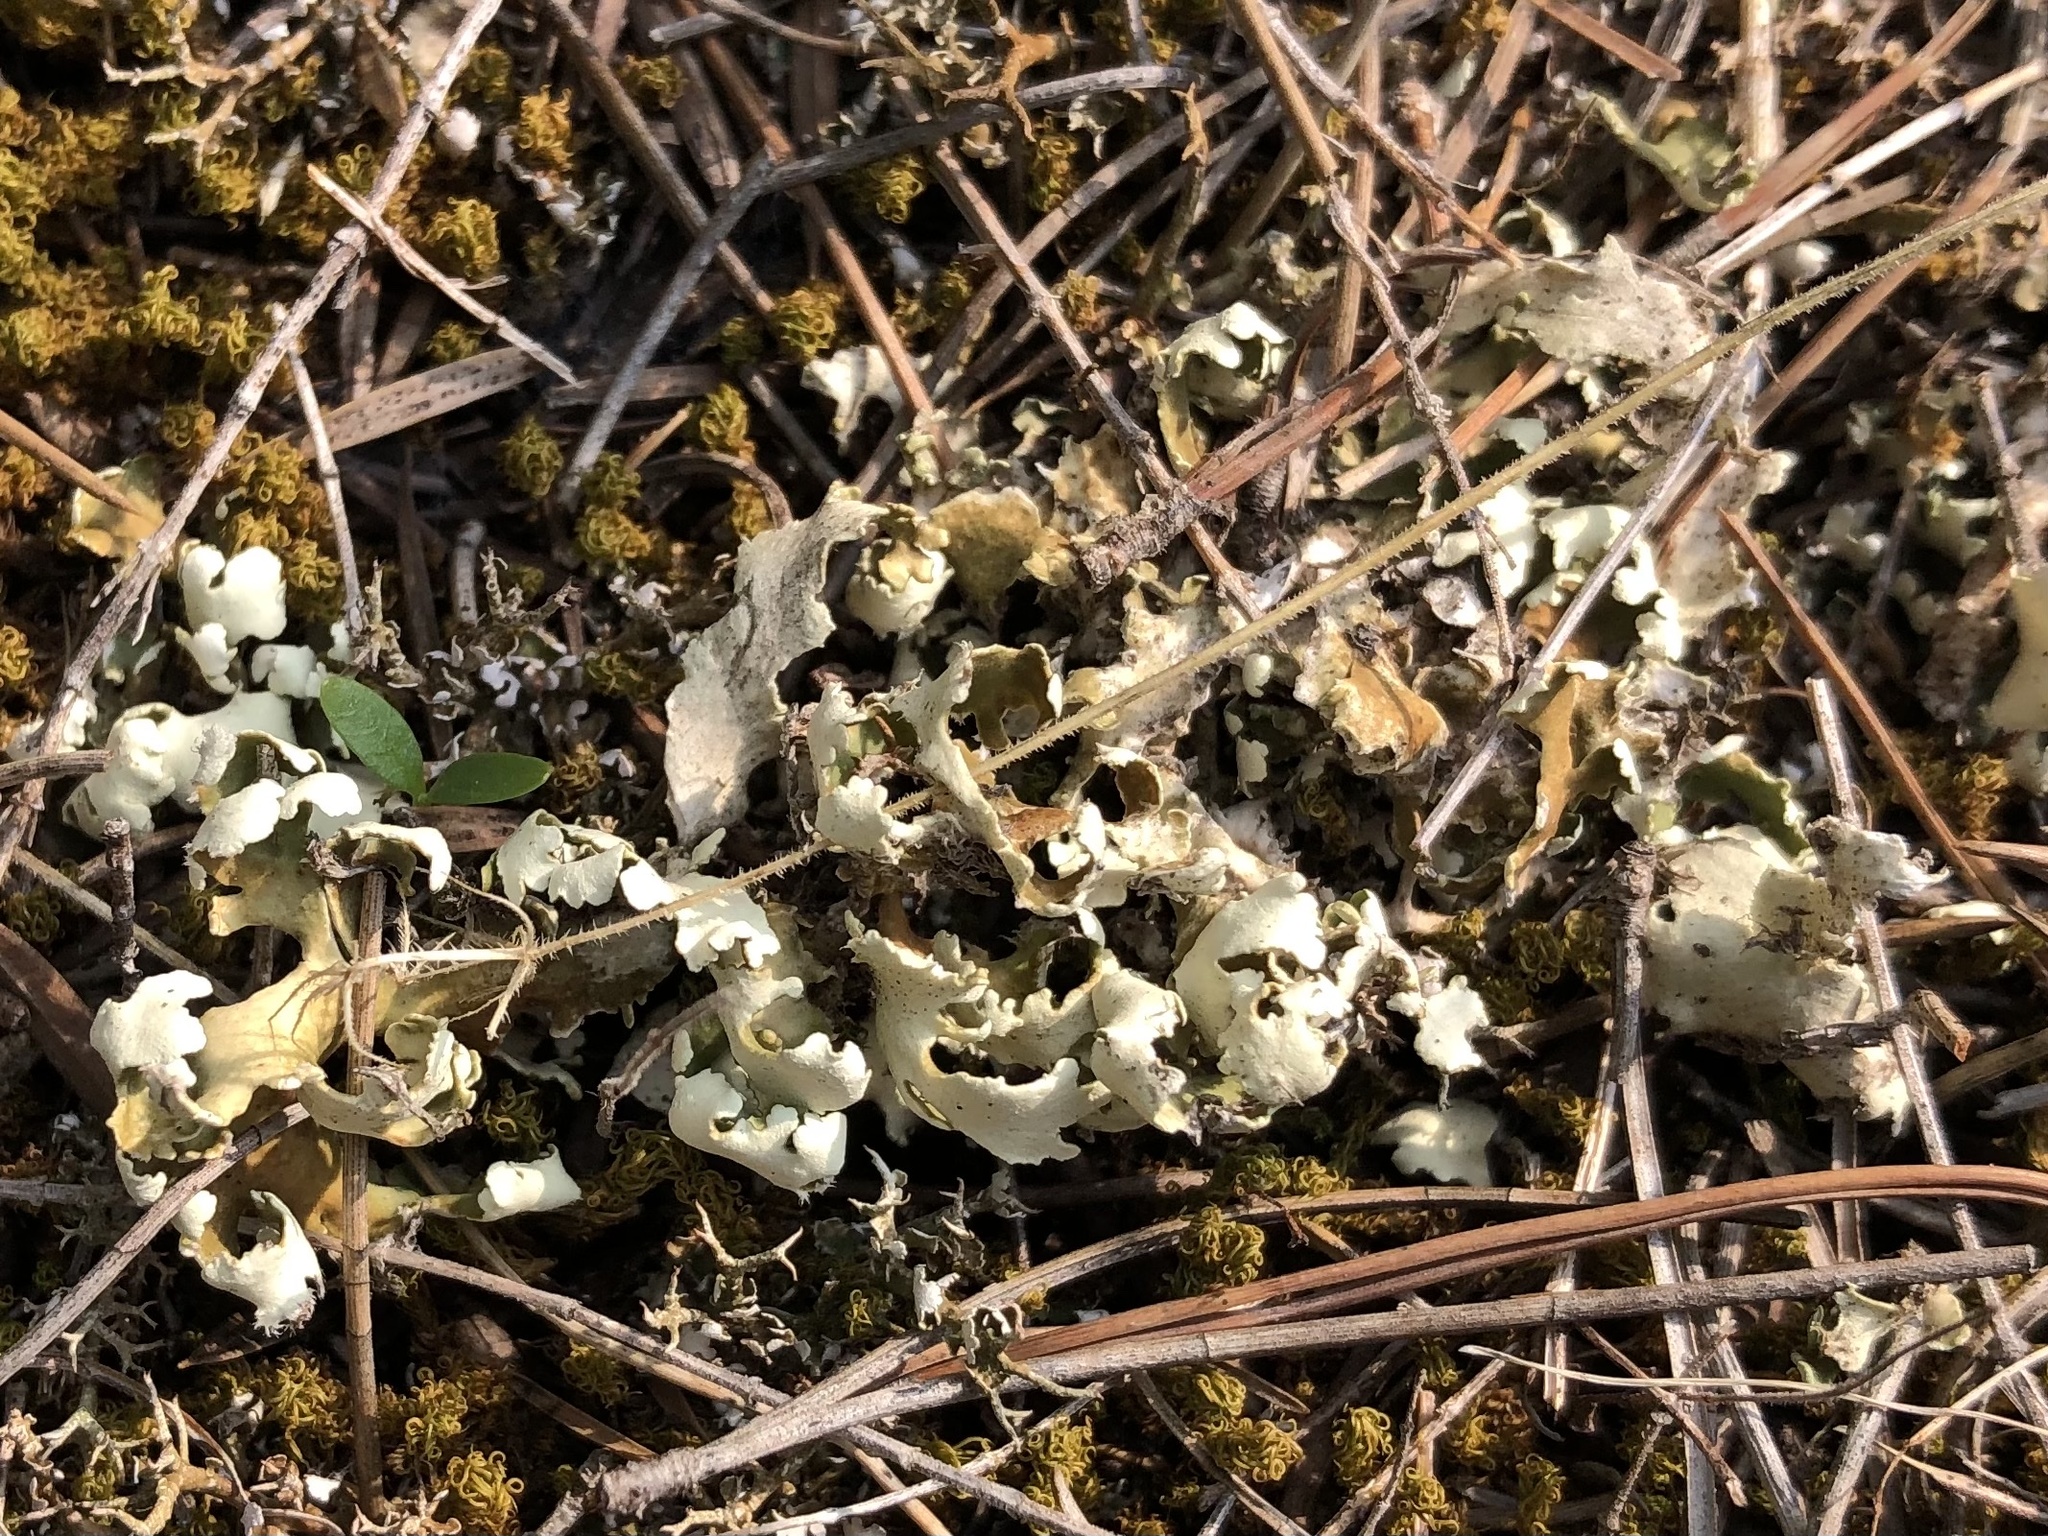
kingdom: Fungi
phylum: Ascomycota
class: Lecanoromycetes
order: Lecanorales
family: Cladoniaceae
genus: Cladonia
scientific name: Cladonia foliacea
